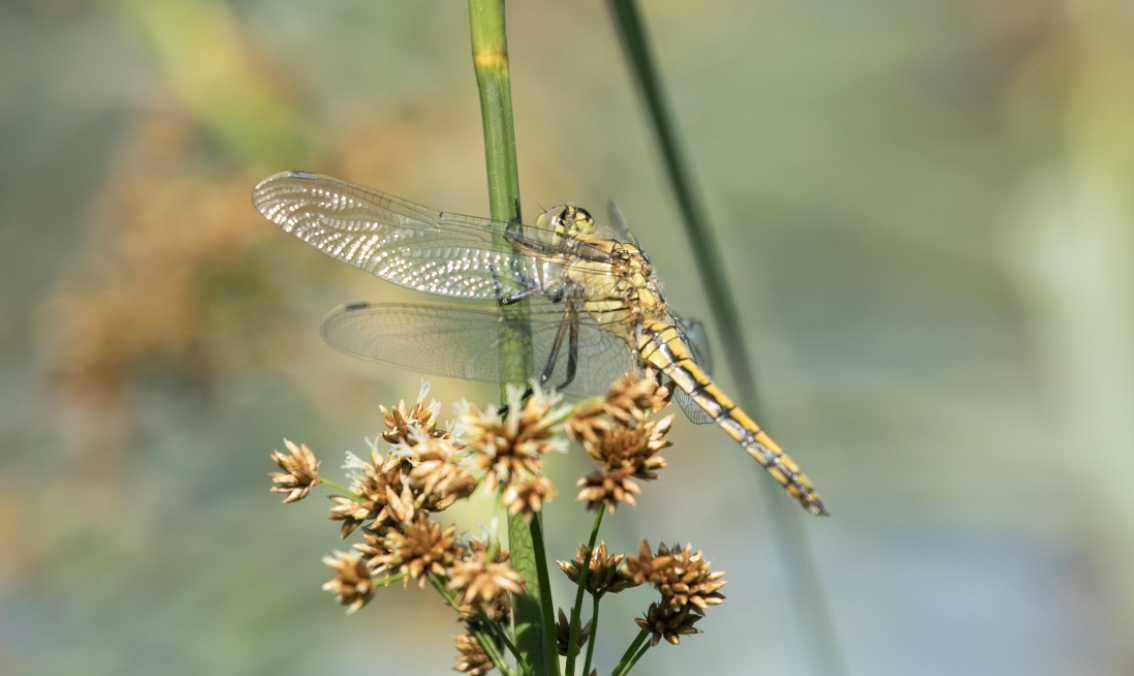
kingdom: Animalia
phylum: Arthropoda
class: Insecta
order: Odonata
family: Libellulidae
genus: Orthetrum
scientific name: Orthetrum cancellatum
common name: Black-tailed skimmer
